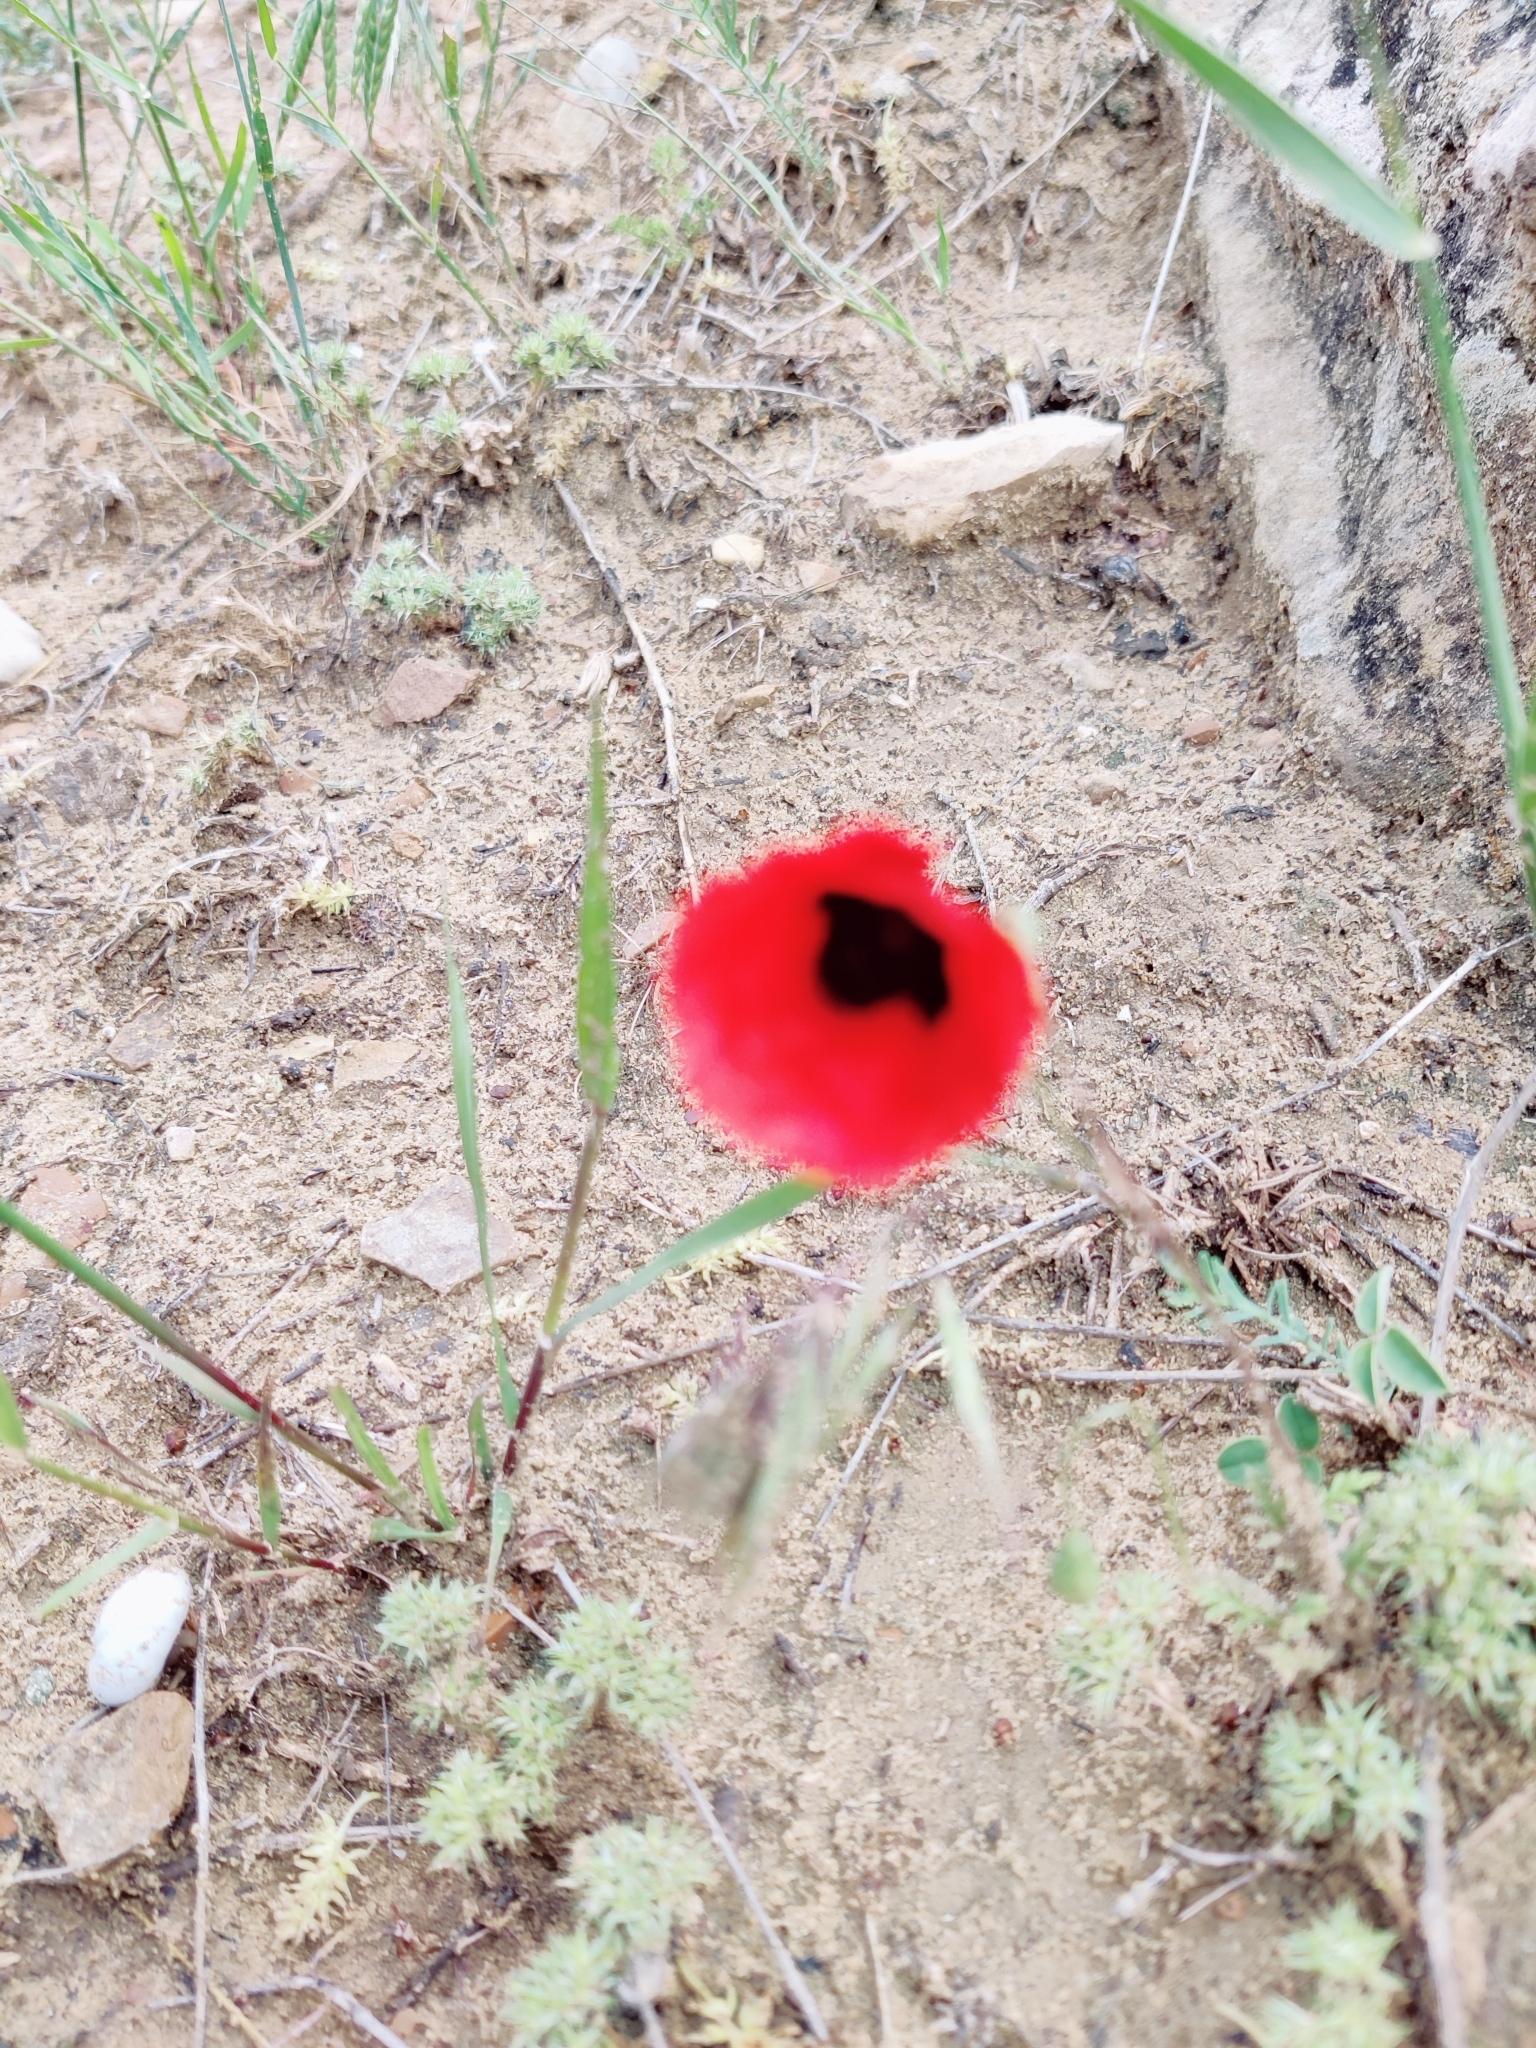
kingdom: Plantae
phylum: Tracheophyta
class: Magnoliopsida
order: Ranunculales
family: Papaveraceae
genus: Papaver
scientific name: Papaver arenarium
